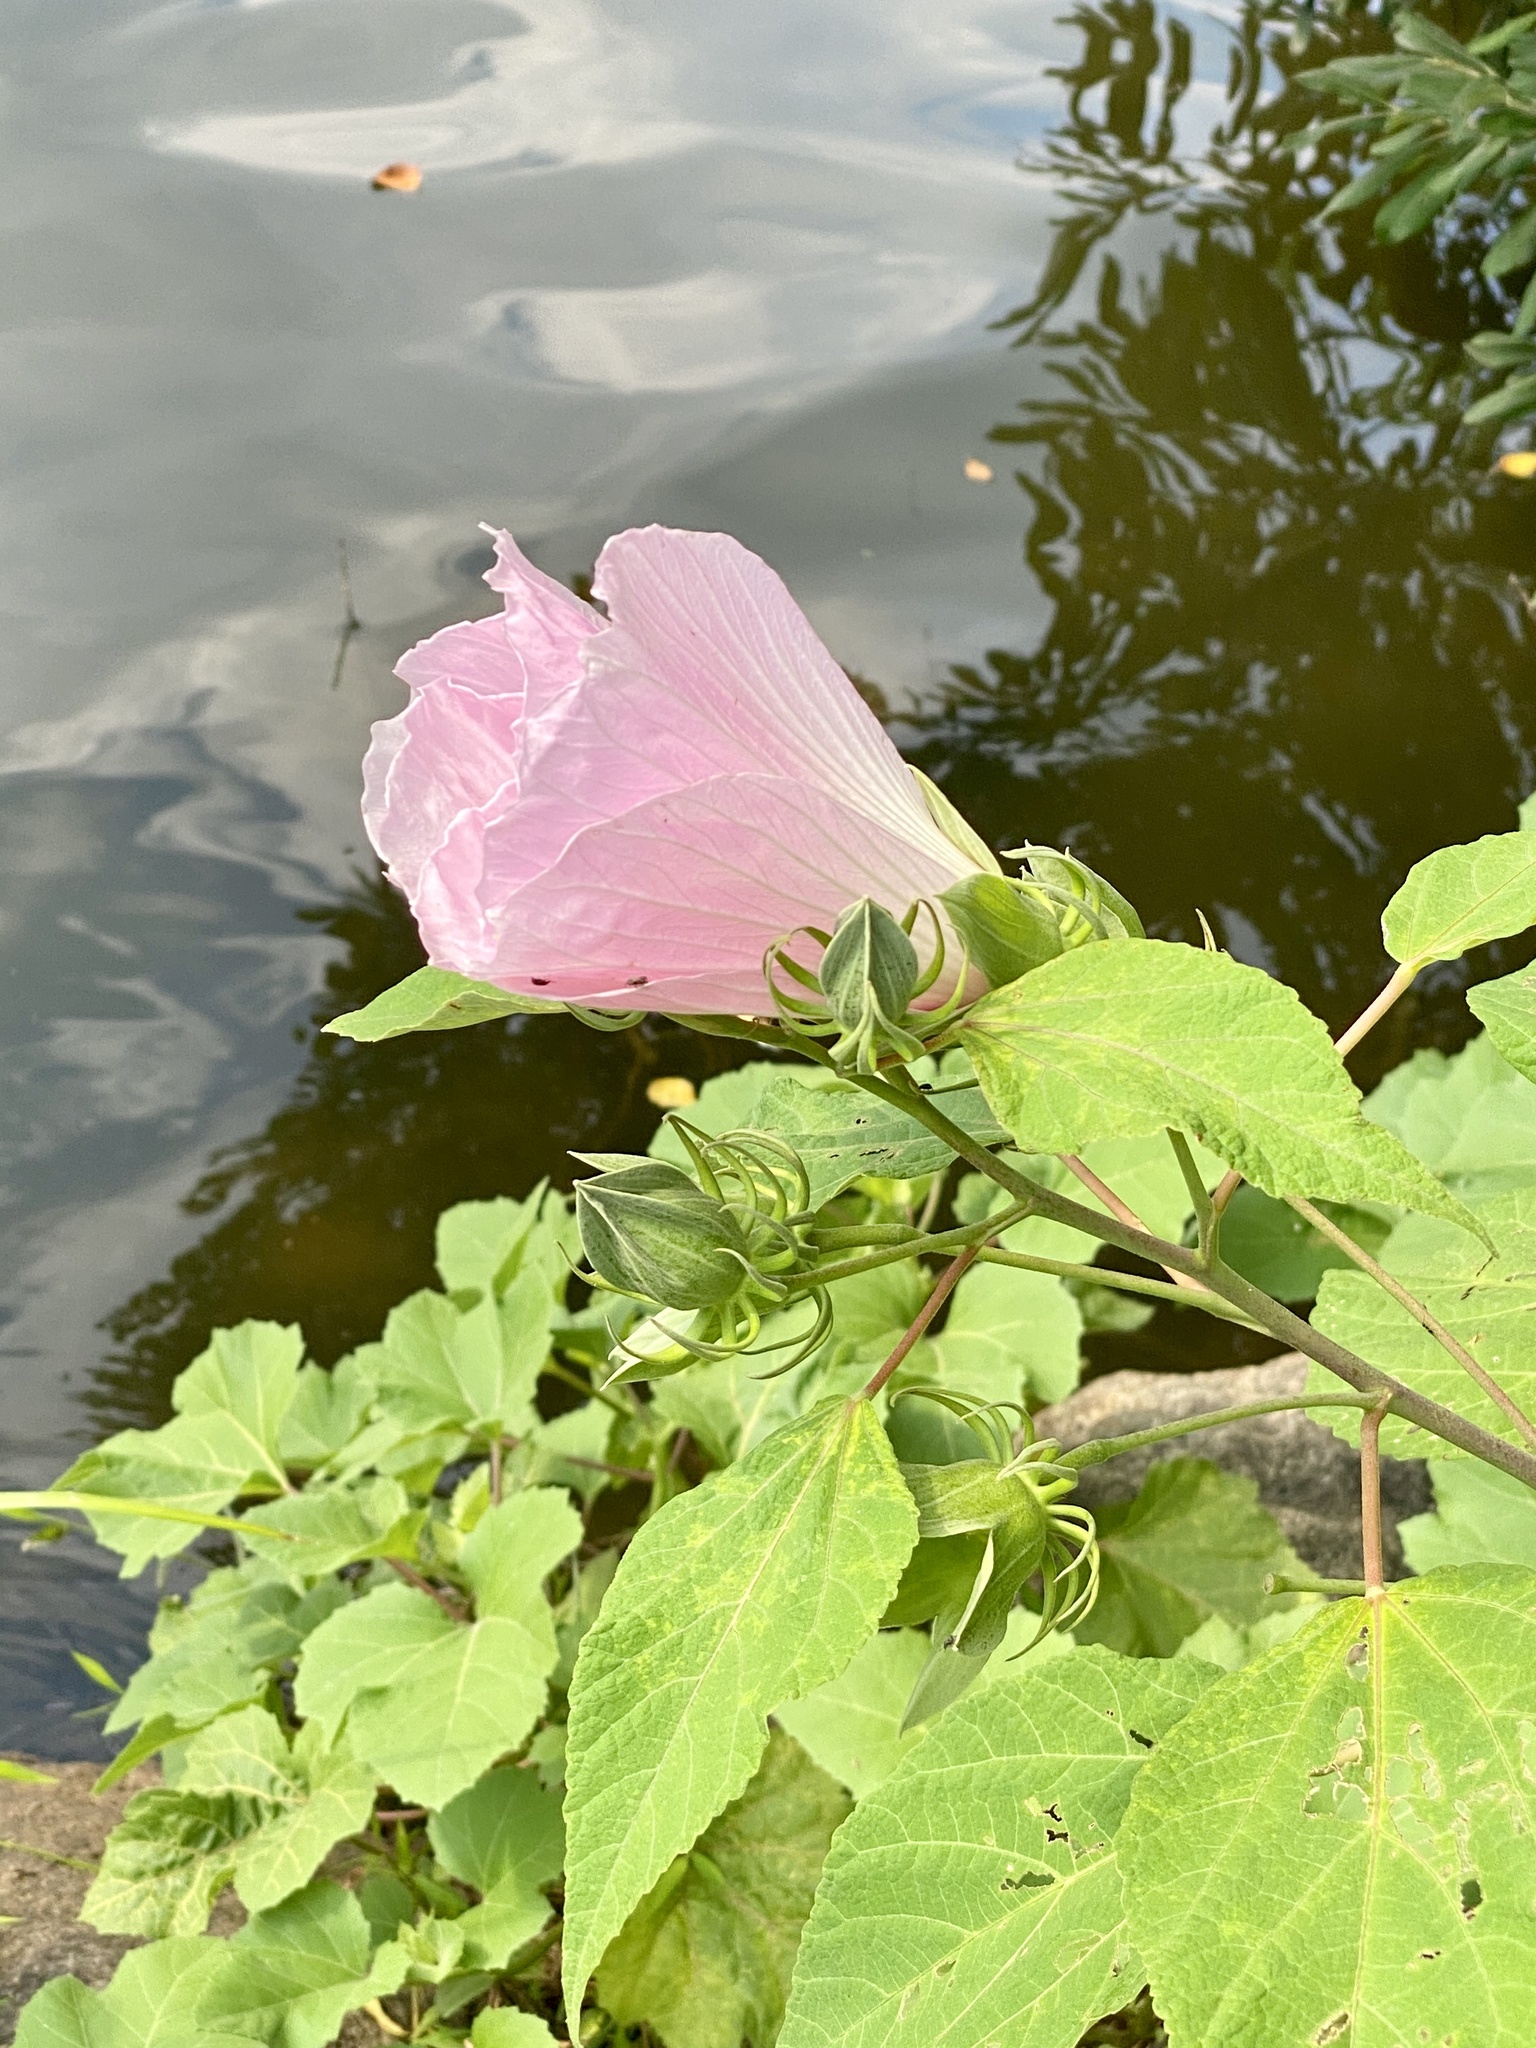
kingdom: Plantae
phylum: Tracheophyta
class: Magnoliopsida
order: Malvales
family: Malvaceae
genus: Hibiscus
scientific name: Hibiscus moscheutos
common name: Common rose-mallow
